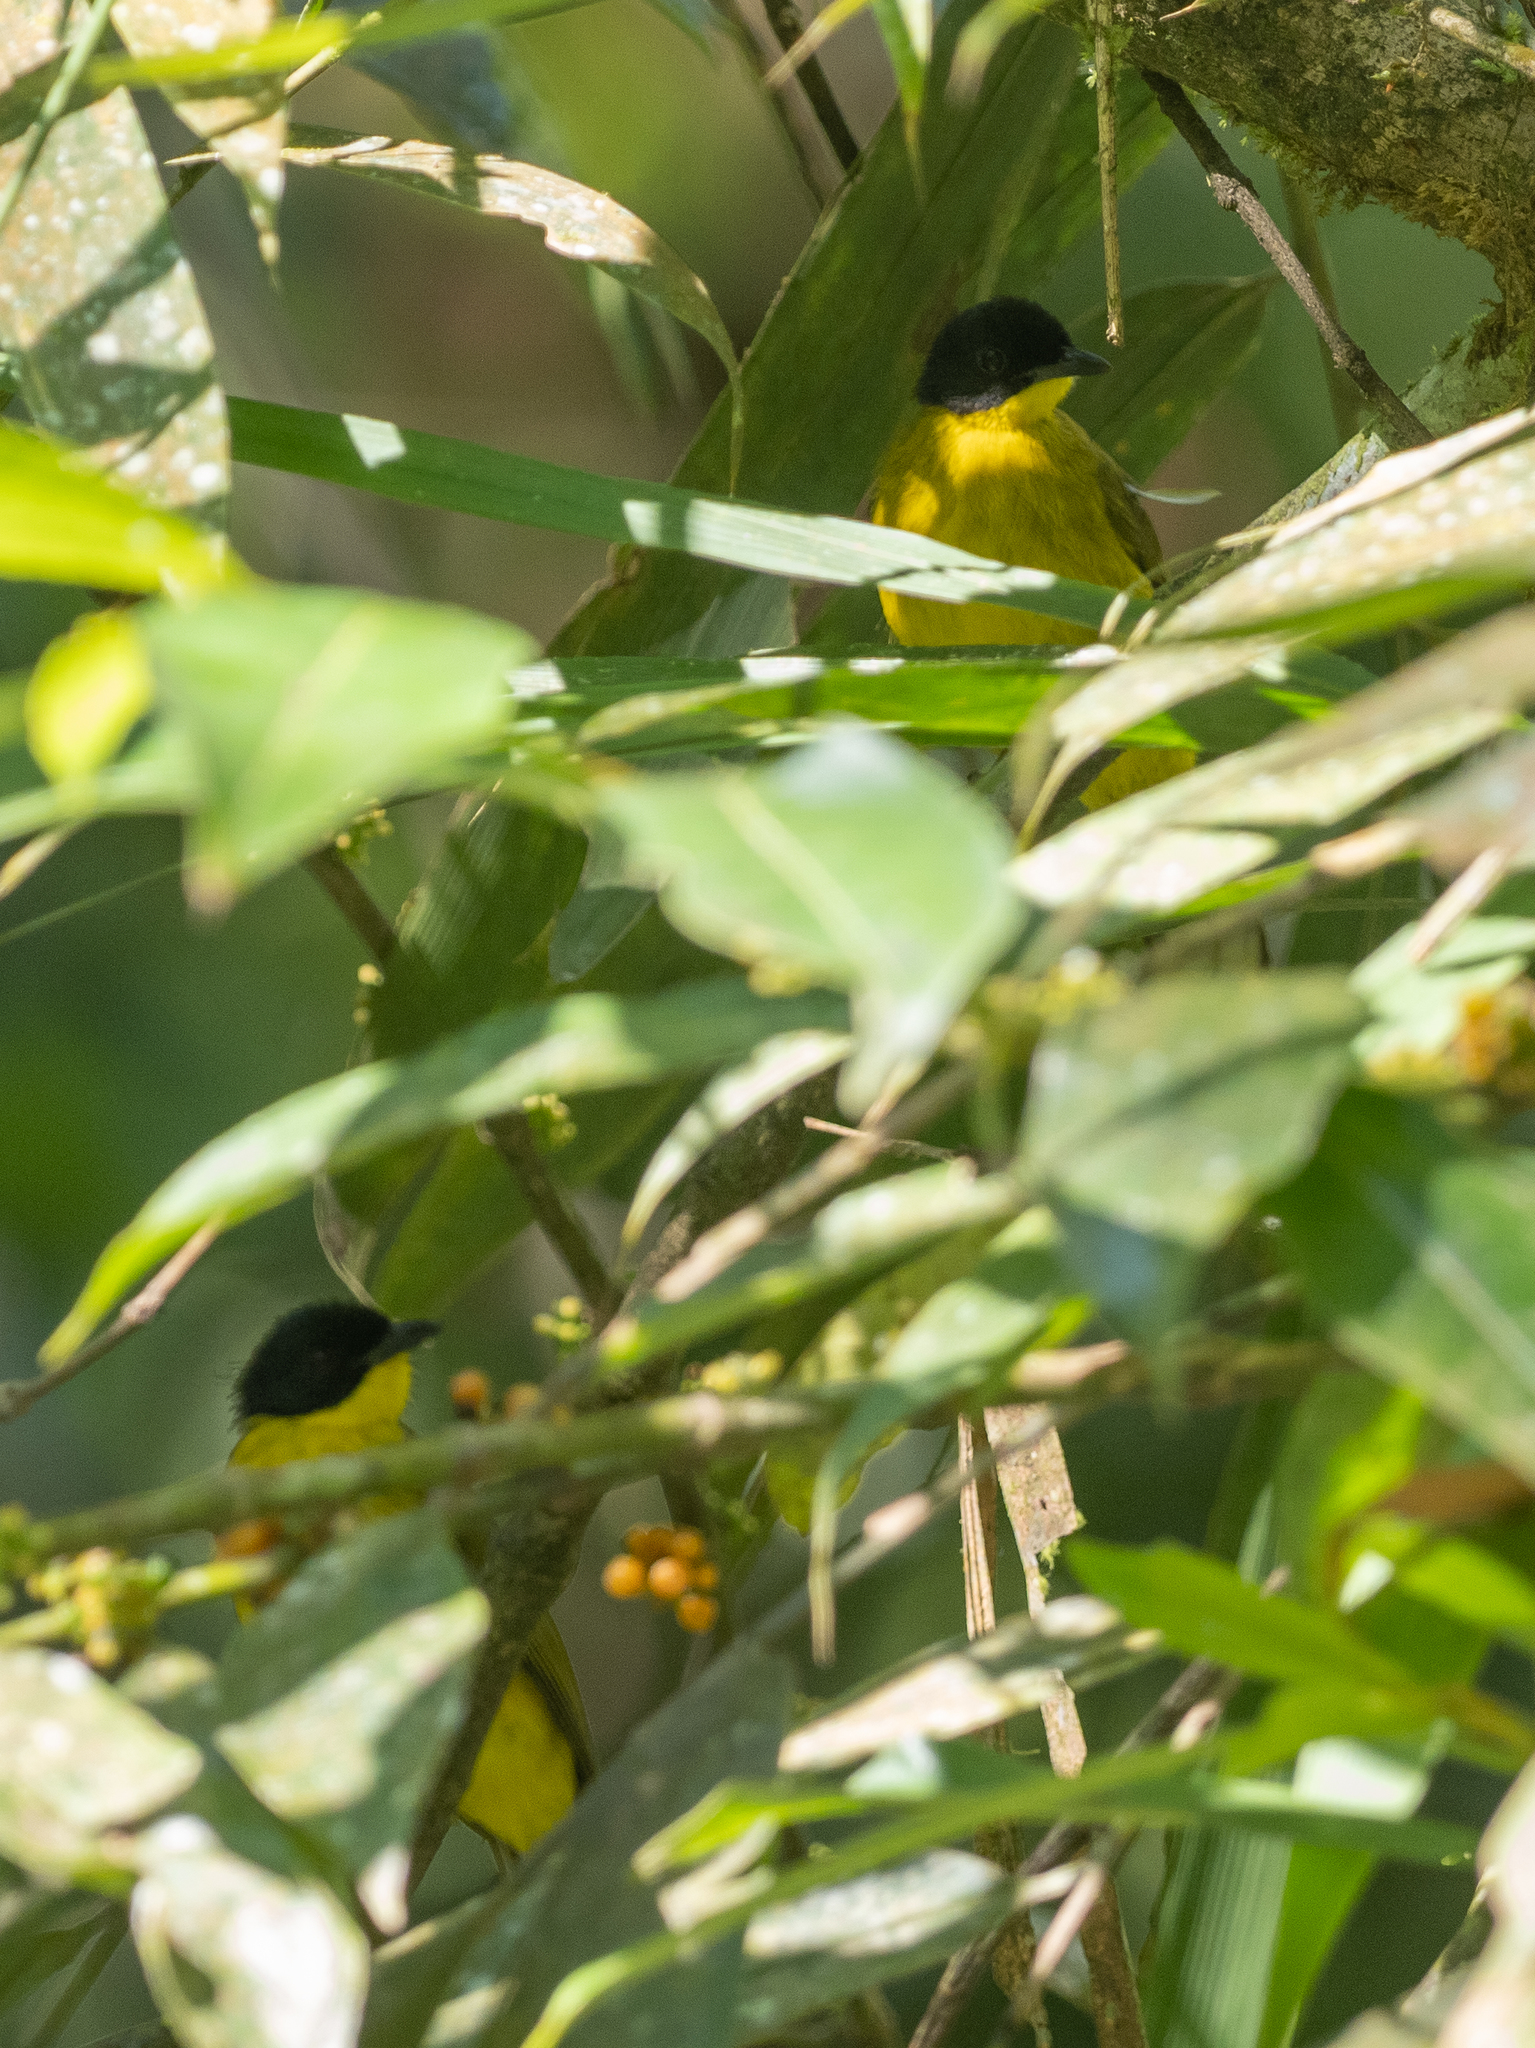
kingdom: Animalia
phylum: Chordata
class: Aves
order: Passeriformes
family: Pycnonotidae
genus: Pycnonotus
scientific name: Pycnonotus melanicterus
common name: Black-crested bulbul
